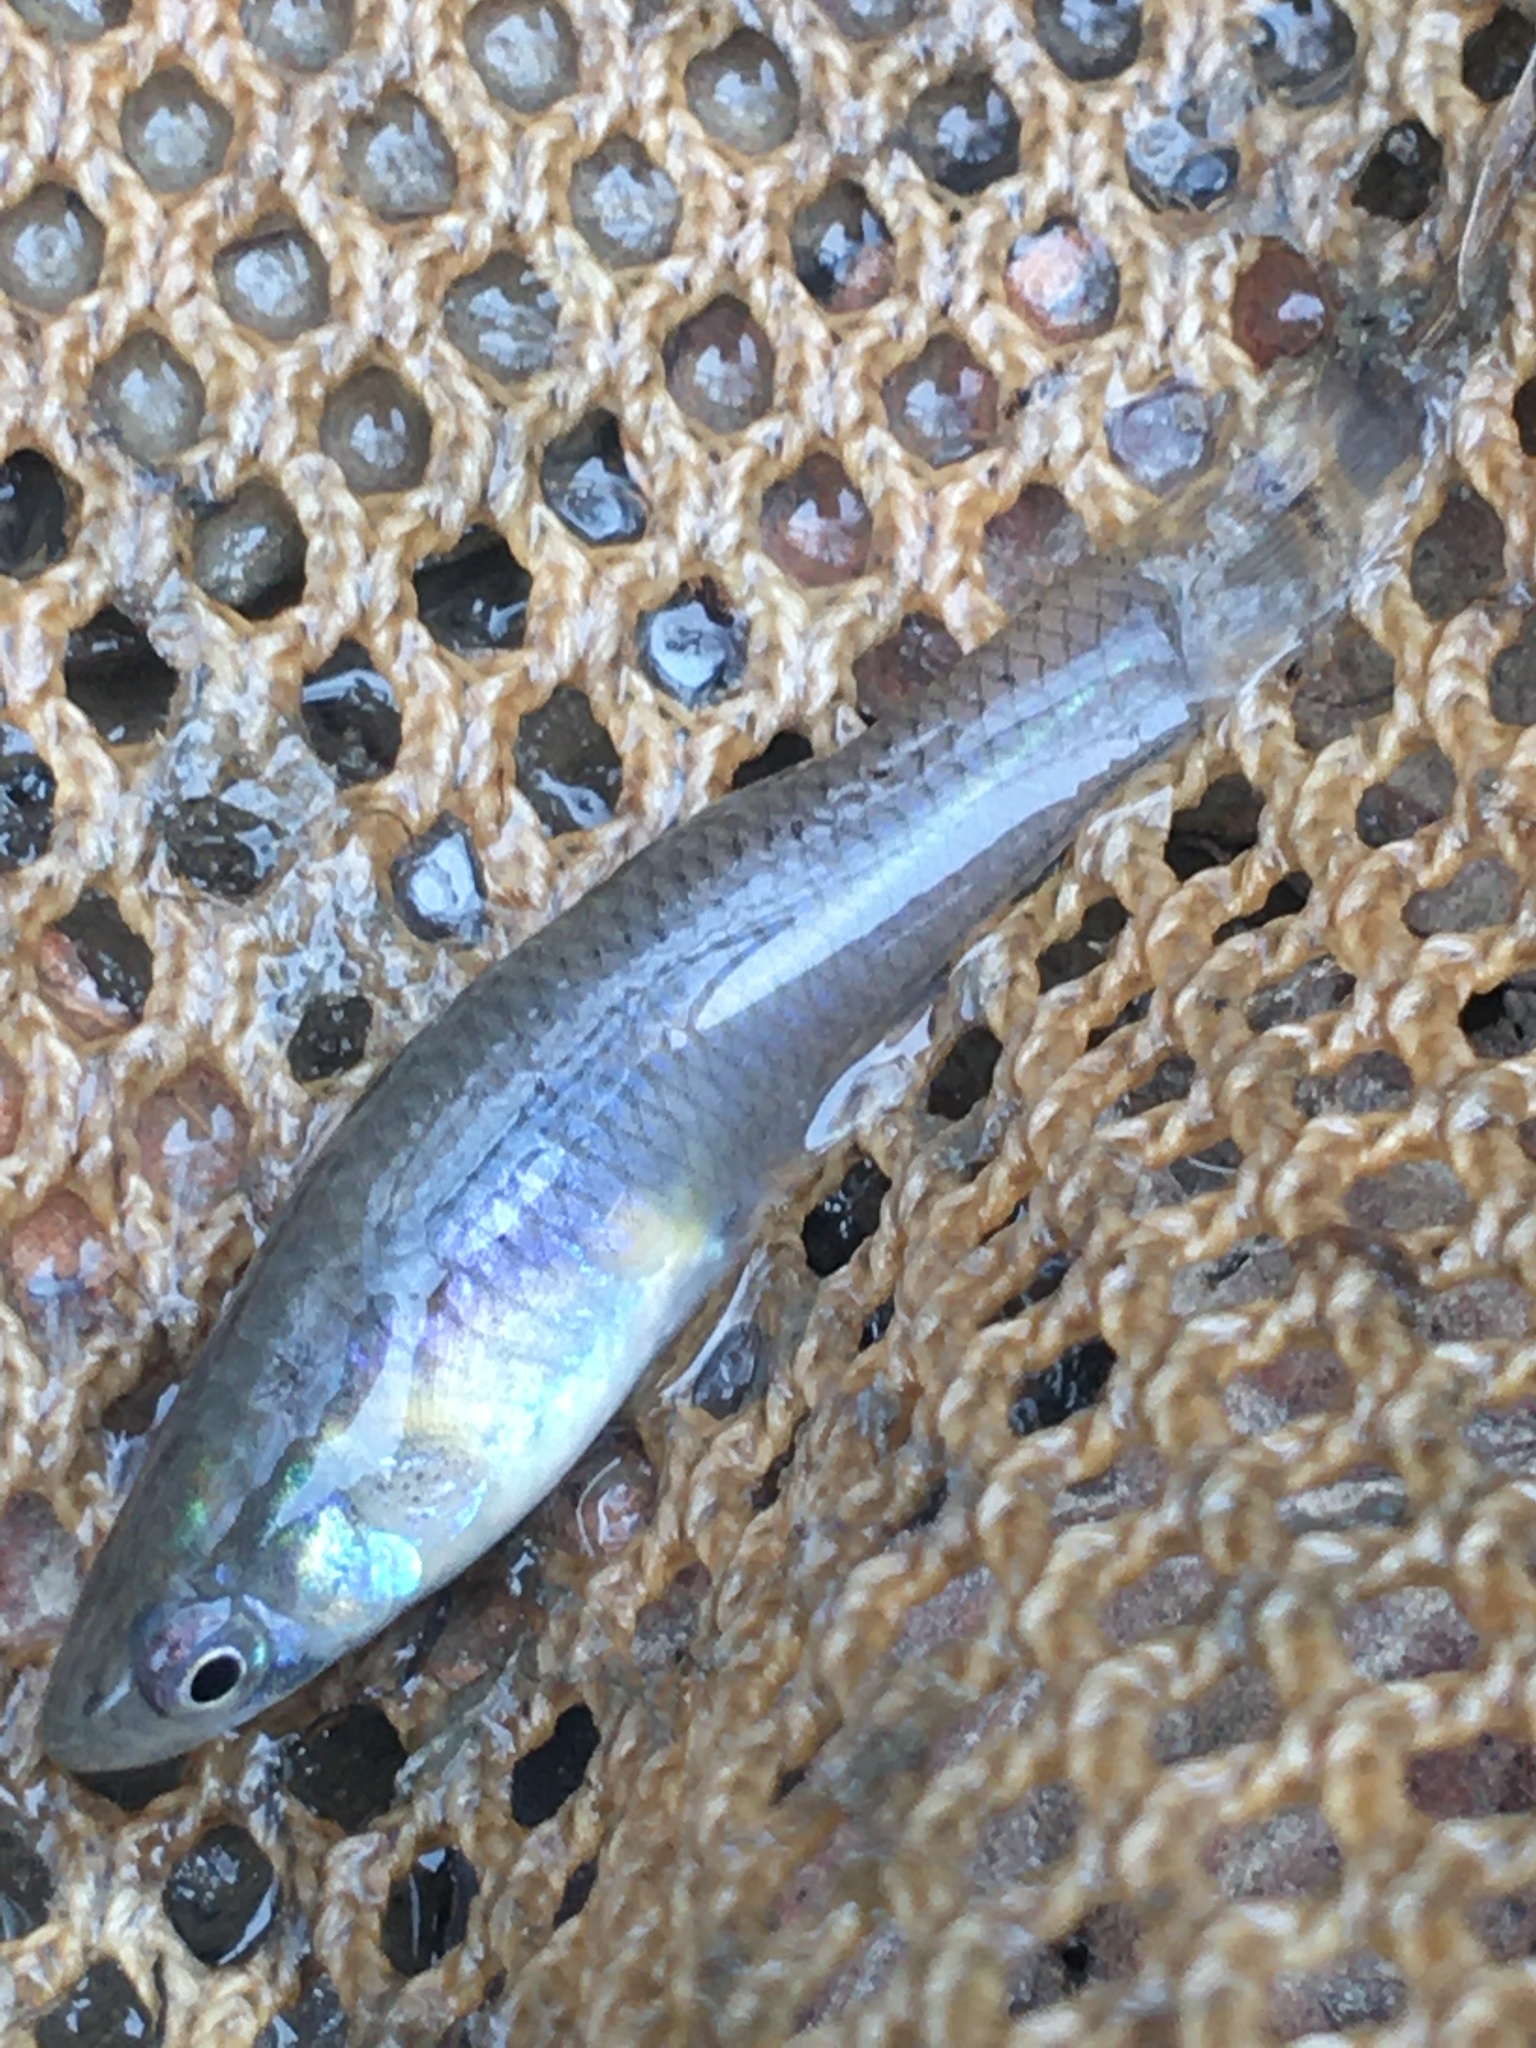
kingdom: Animalia
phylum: Chordata
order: Cyprinodontiformes
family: Poeciliidae
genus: Gambusia
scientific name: Gambusia affinis
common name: Mosquitofish
